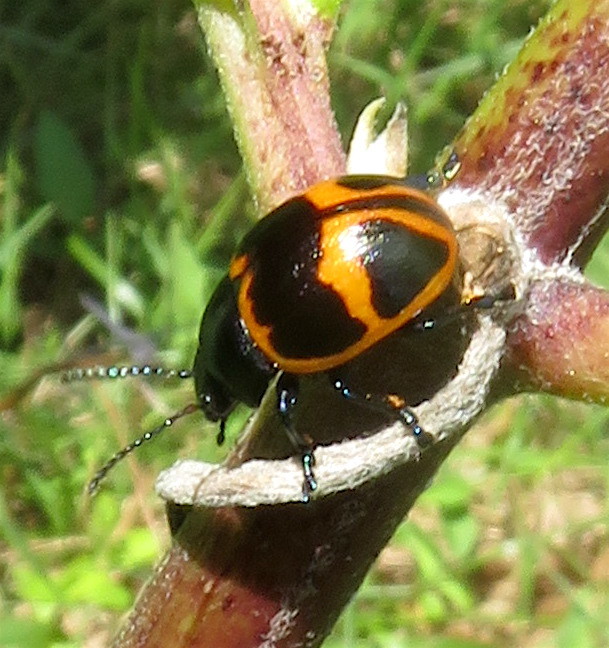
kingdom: Animalia
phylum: Arthropoda
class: Insecta
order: Coleoptera
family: Chrysomelidae
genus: Labidomera
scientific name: Labidomera clivicollis
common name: Swamp milkweed leaf beetle
